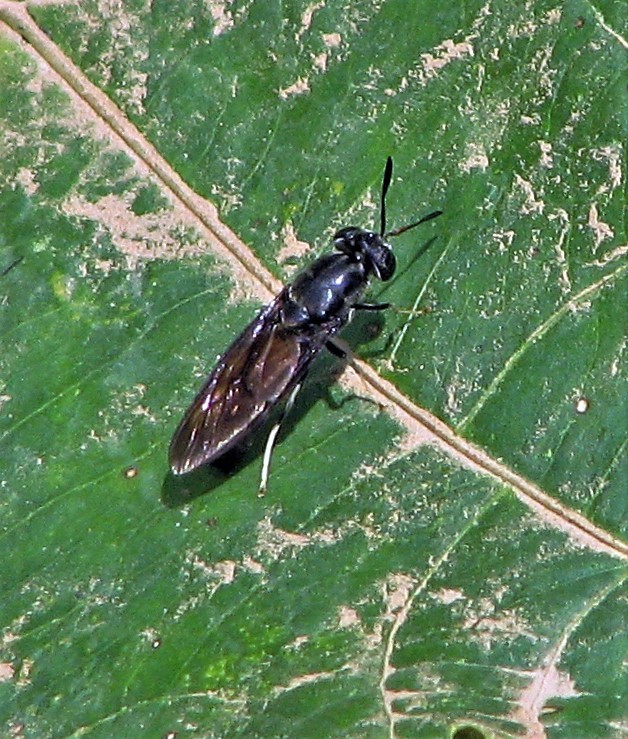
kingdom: Animalia
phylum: Arthropoda
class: Insecta
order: Diptera
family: Stratiomyidae
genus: Hermetia
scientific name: Hermetia illucens
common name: Black soldier fly
